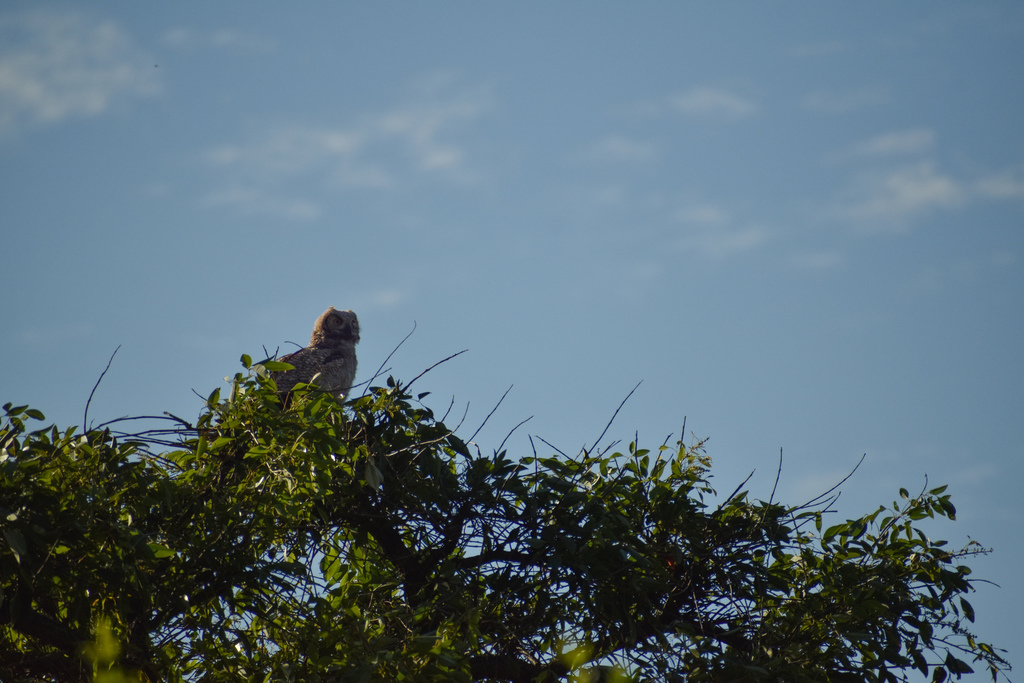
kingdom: Animalia
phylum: Chordata
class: Aves
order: Strigiformes
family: Strigidae
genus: Bubo
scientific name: Bubo virginianus
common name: Great horned owl
